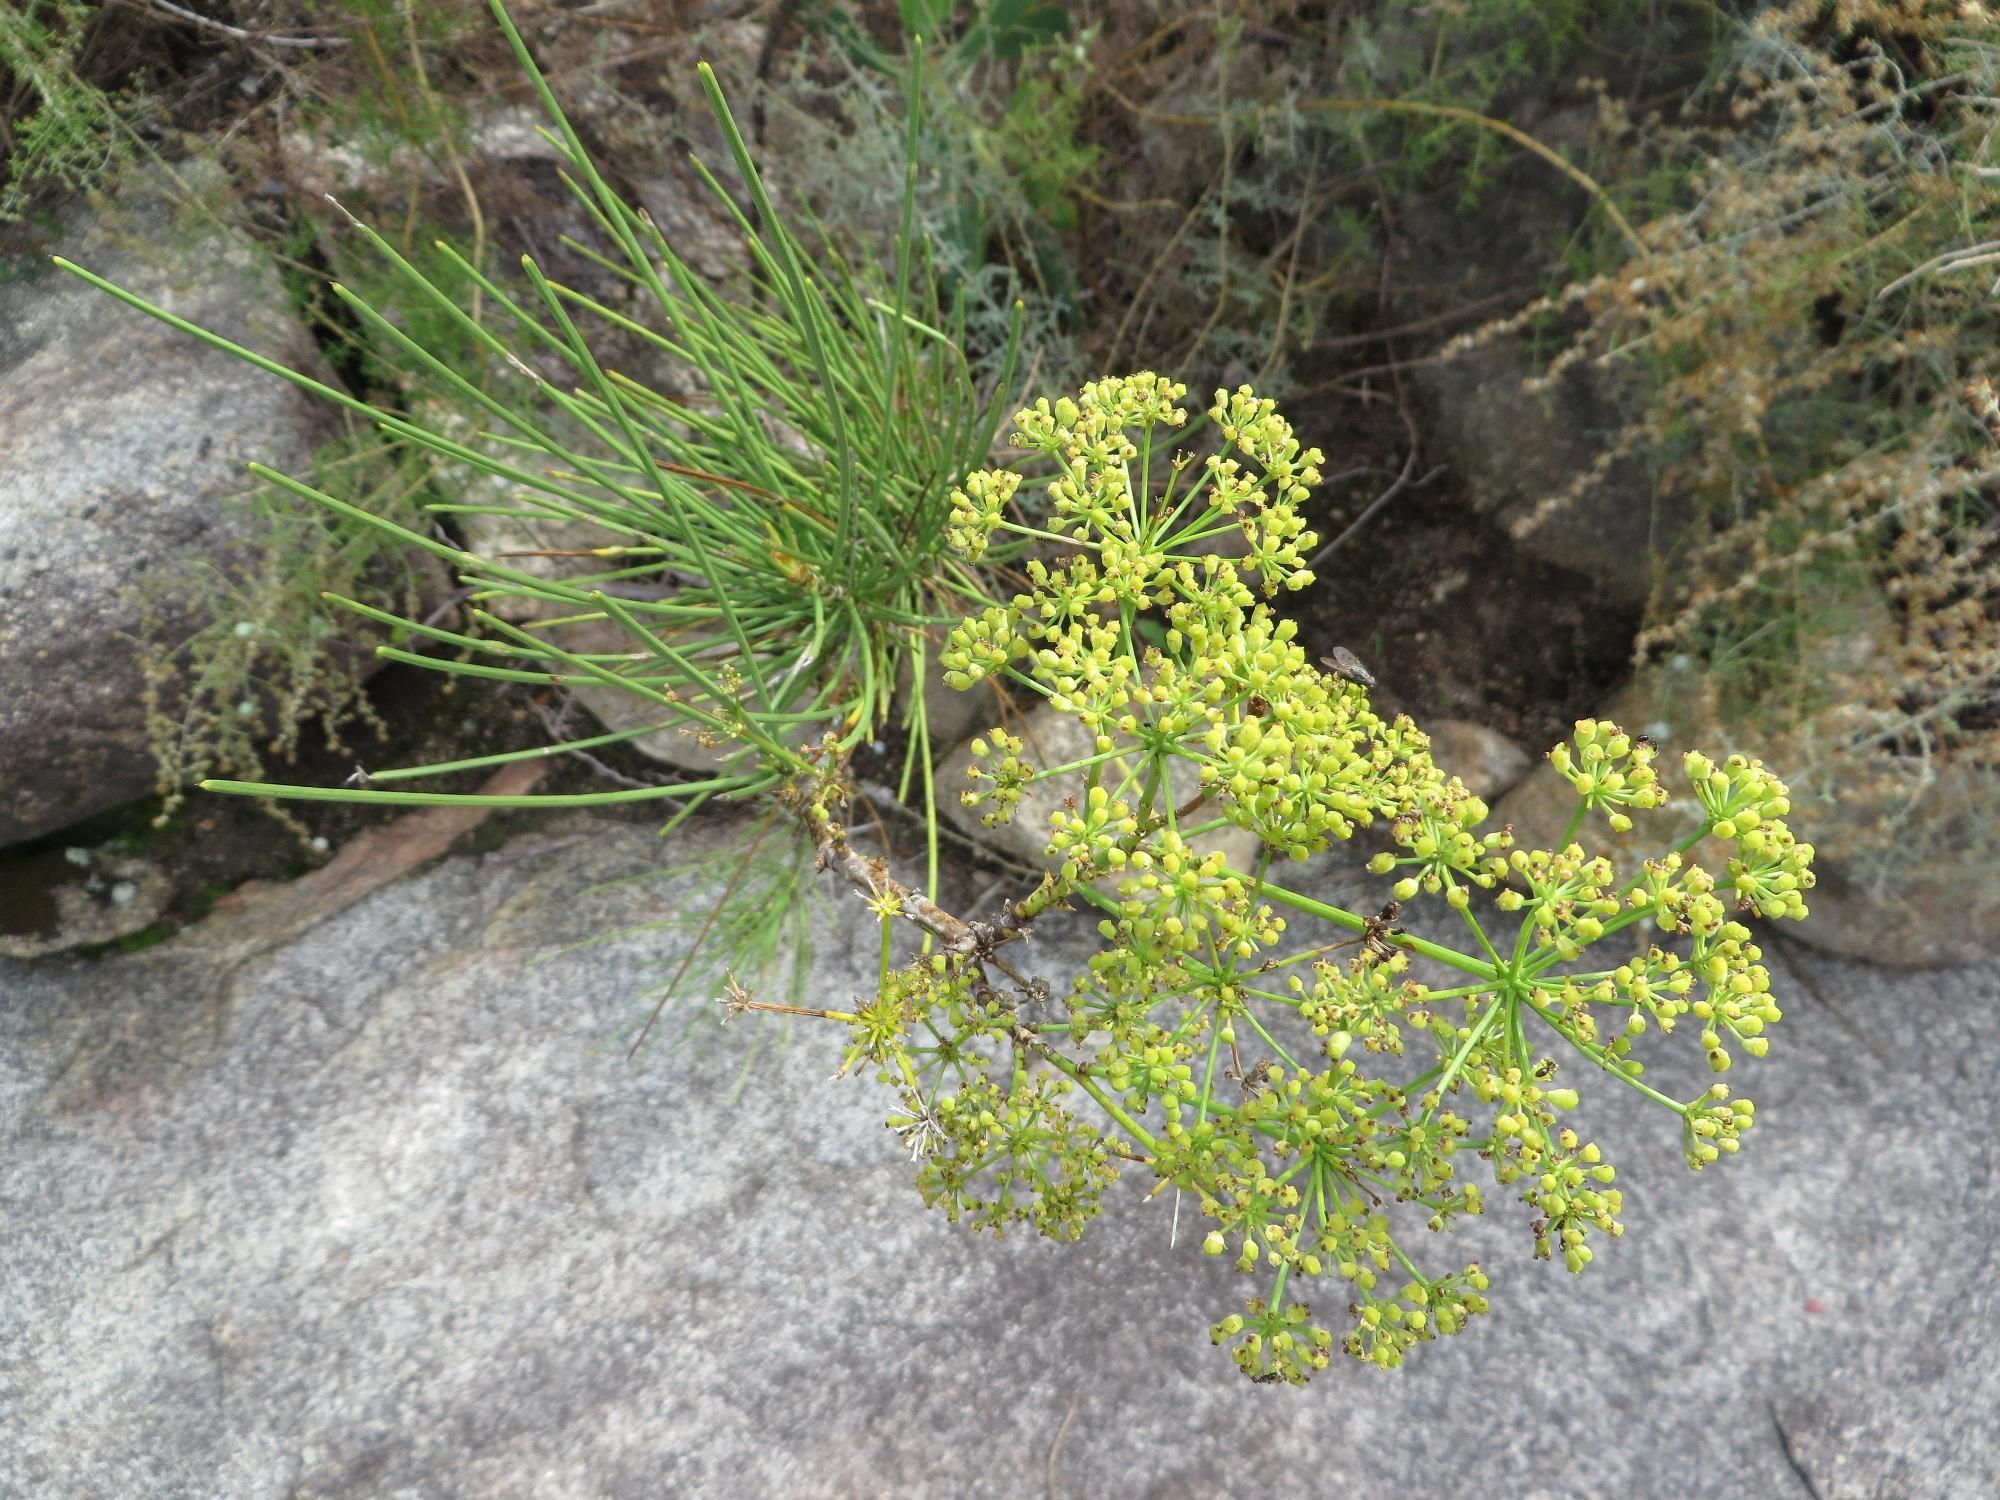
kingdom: Plantae
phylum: Tracheophyta
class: Magnoliopsida
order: Apiales
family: Apiaceae
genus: Anginon
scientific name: Anginon difforme
